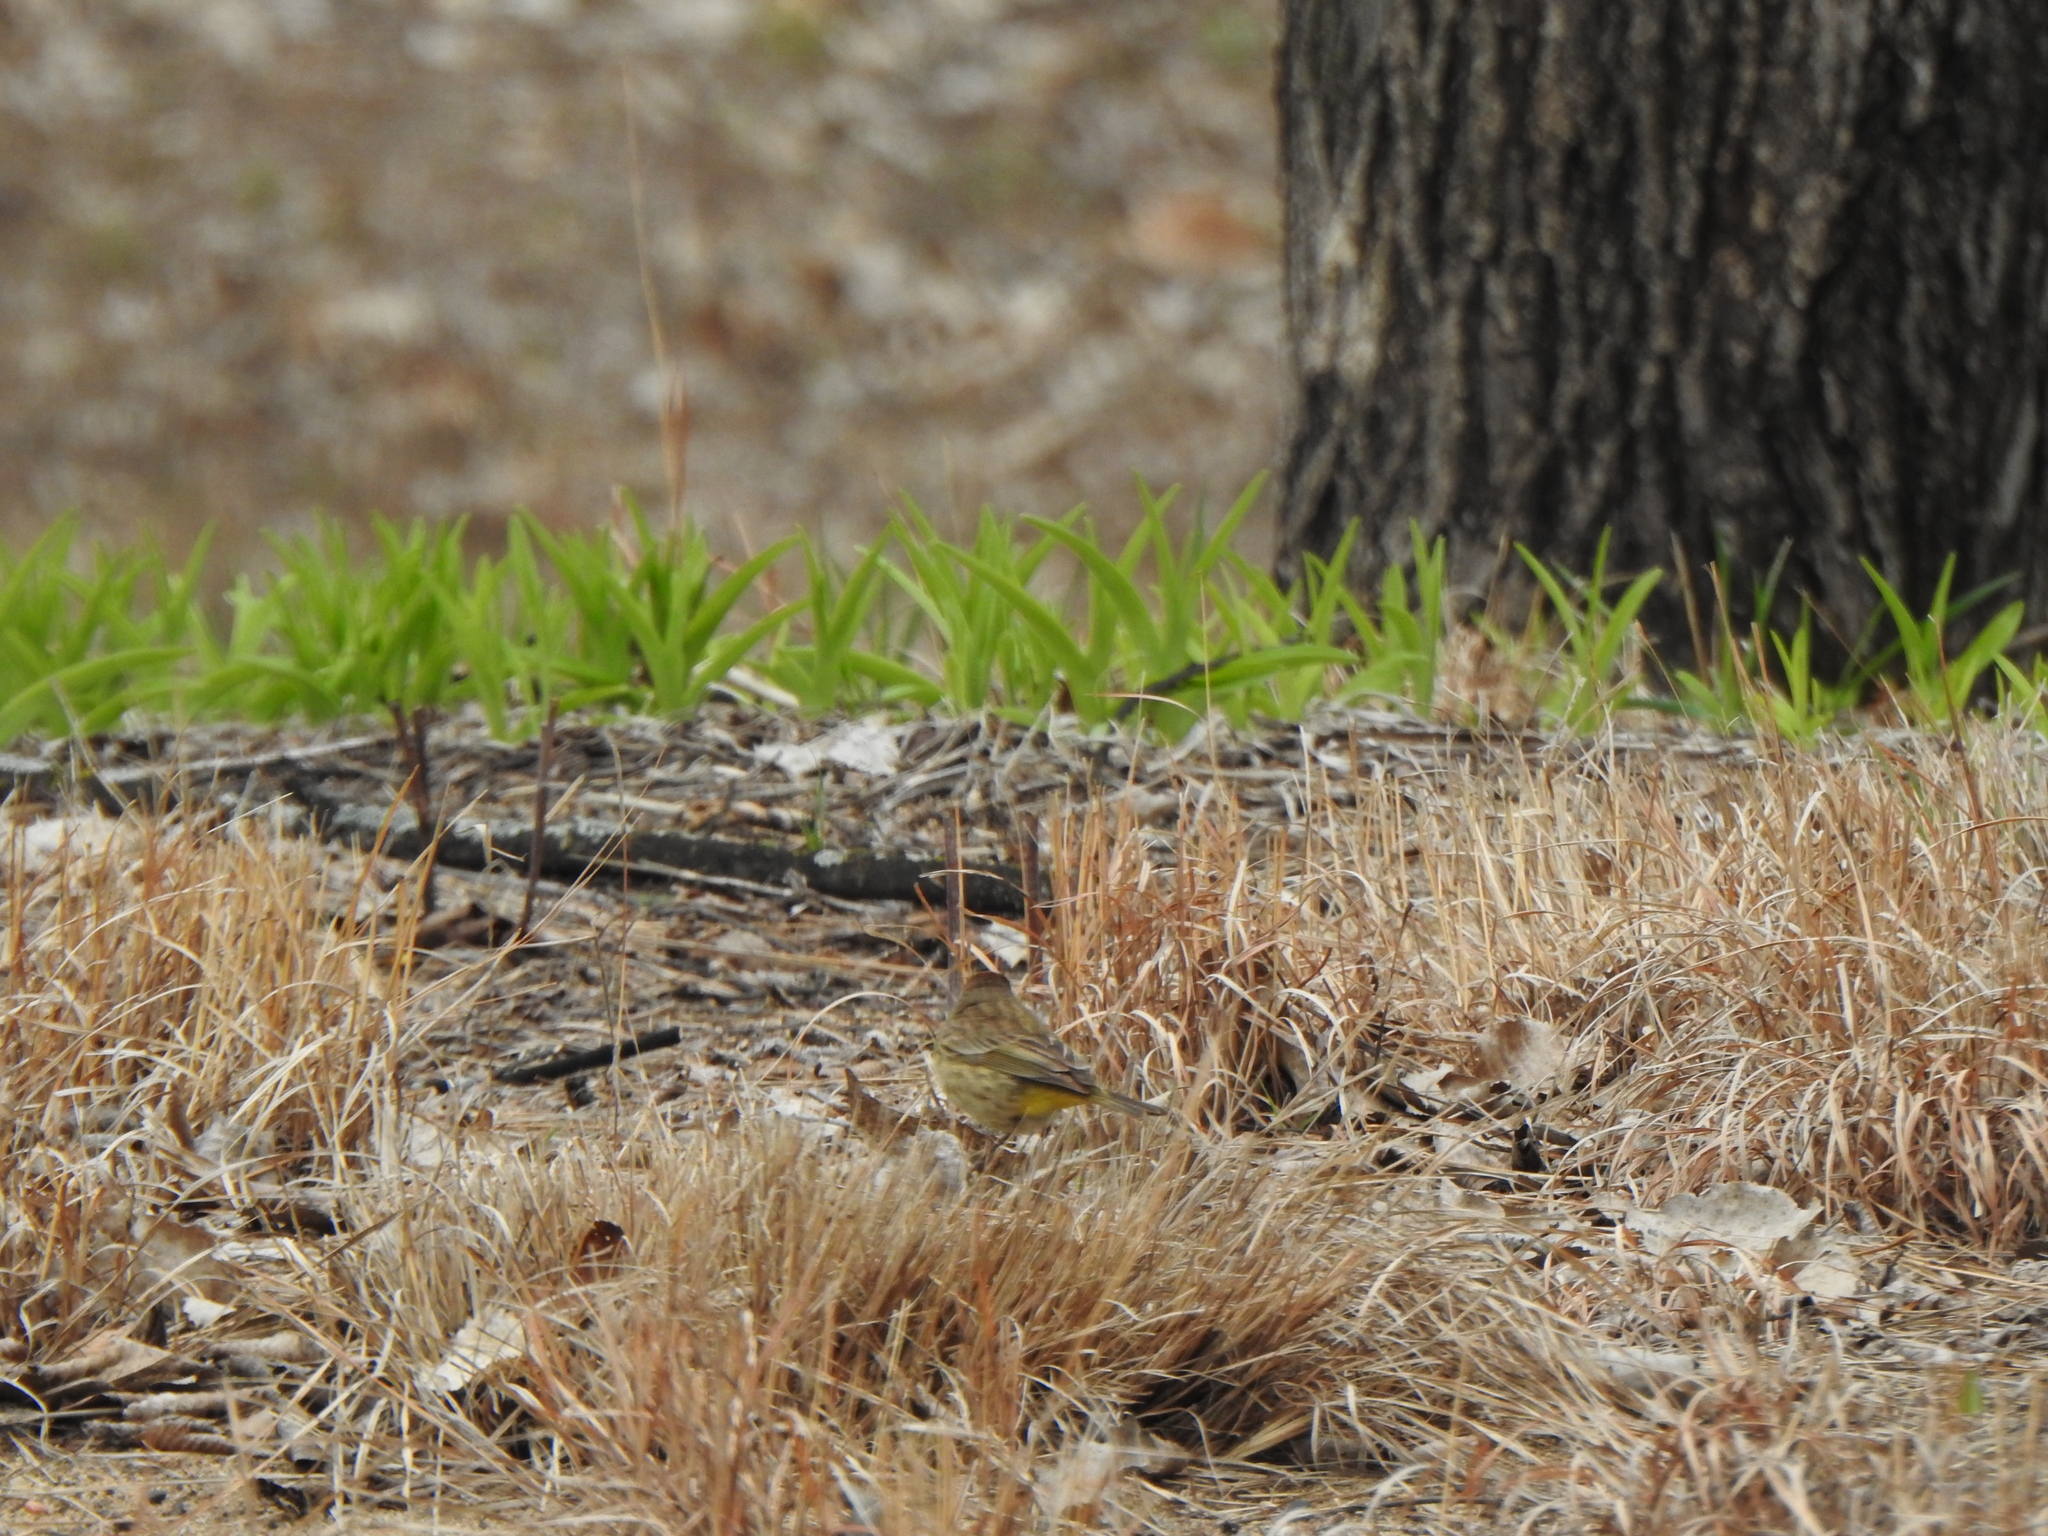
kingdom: Animalia
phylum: Chordata
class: Aves
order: Passeriformes
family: Parulidae
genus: Setophaga
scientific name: Setophaga palmarum
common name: Palm warbler
